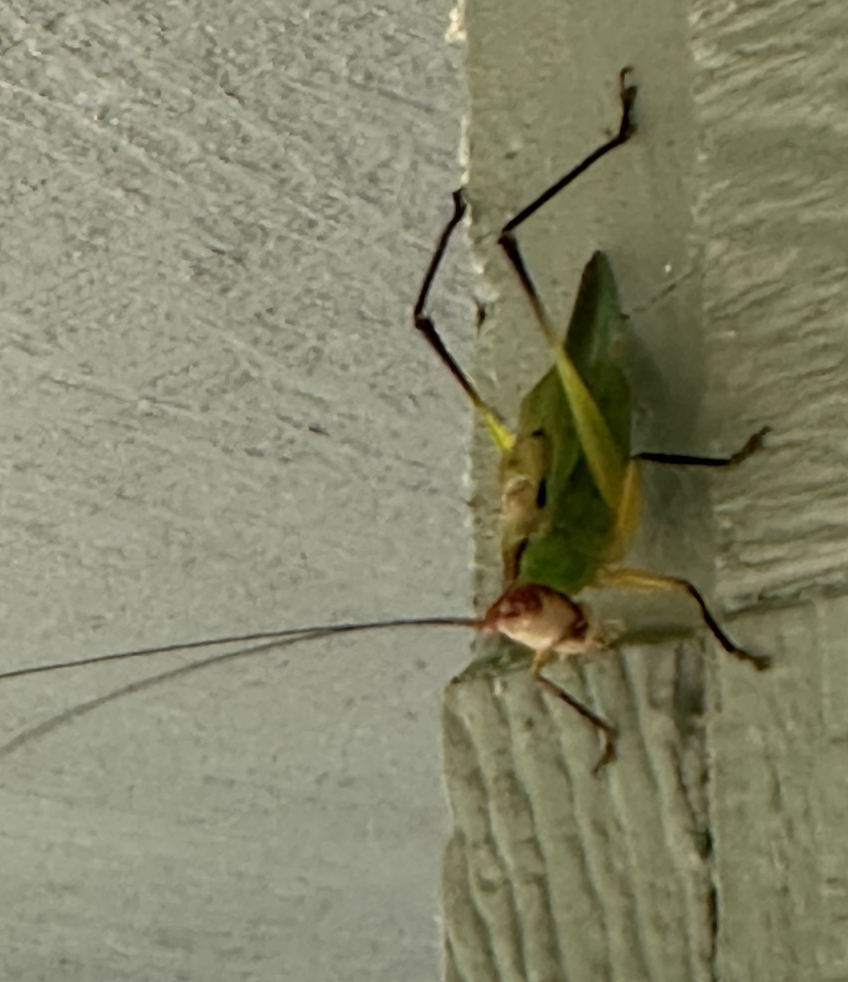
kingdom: Animalia
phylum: Arthropoda
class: Insecta
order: Orthoptera
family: Tettigoniidae
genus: Orchelimum
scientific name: Orchelimum nigripes
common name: Black-legged meadow katydid
